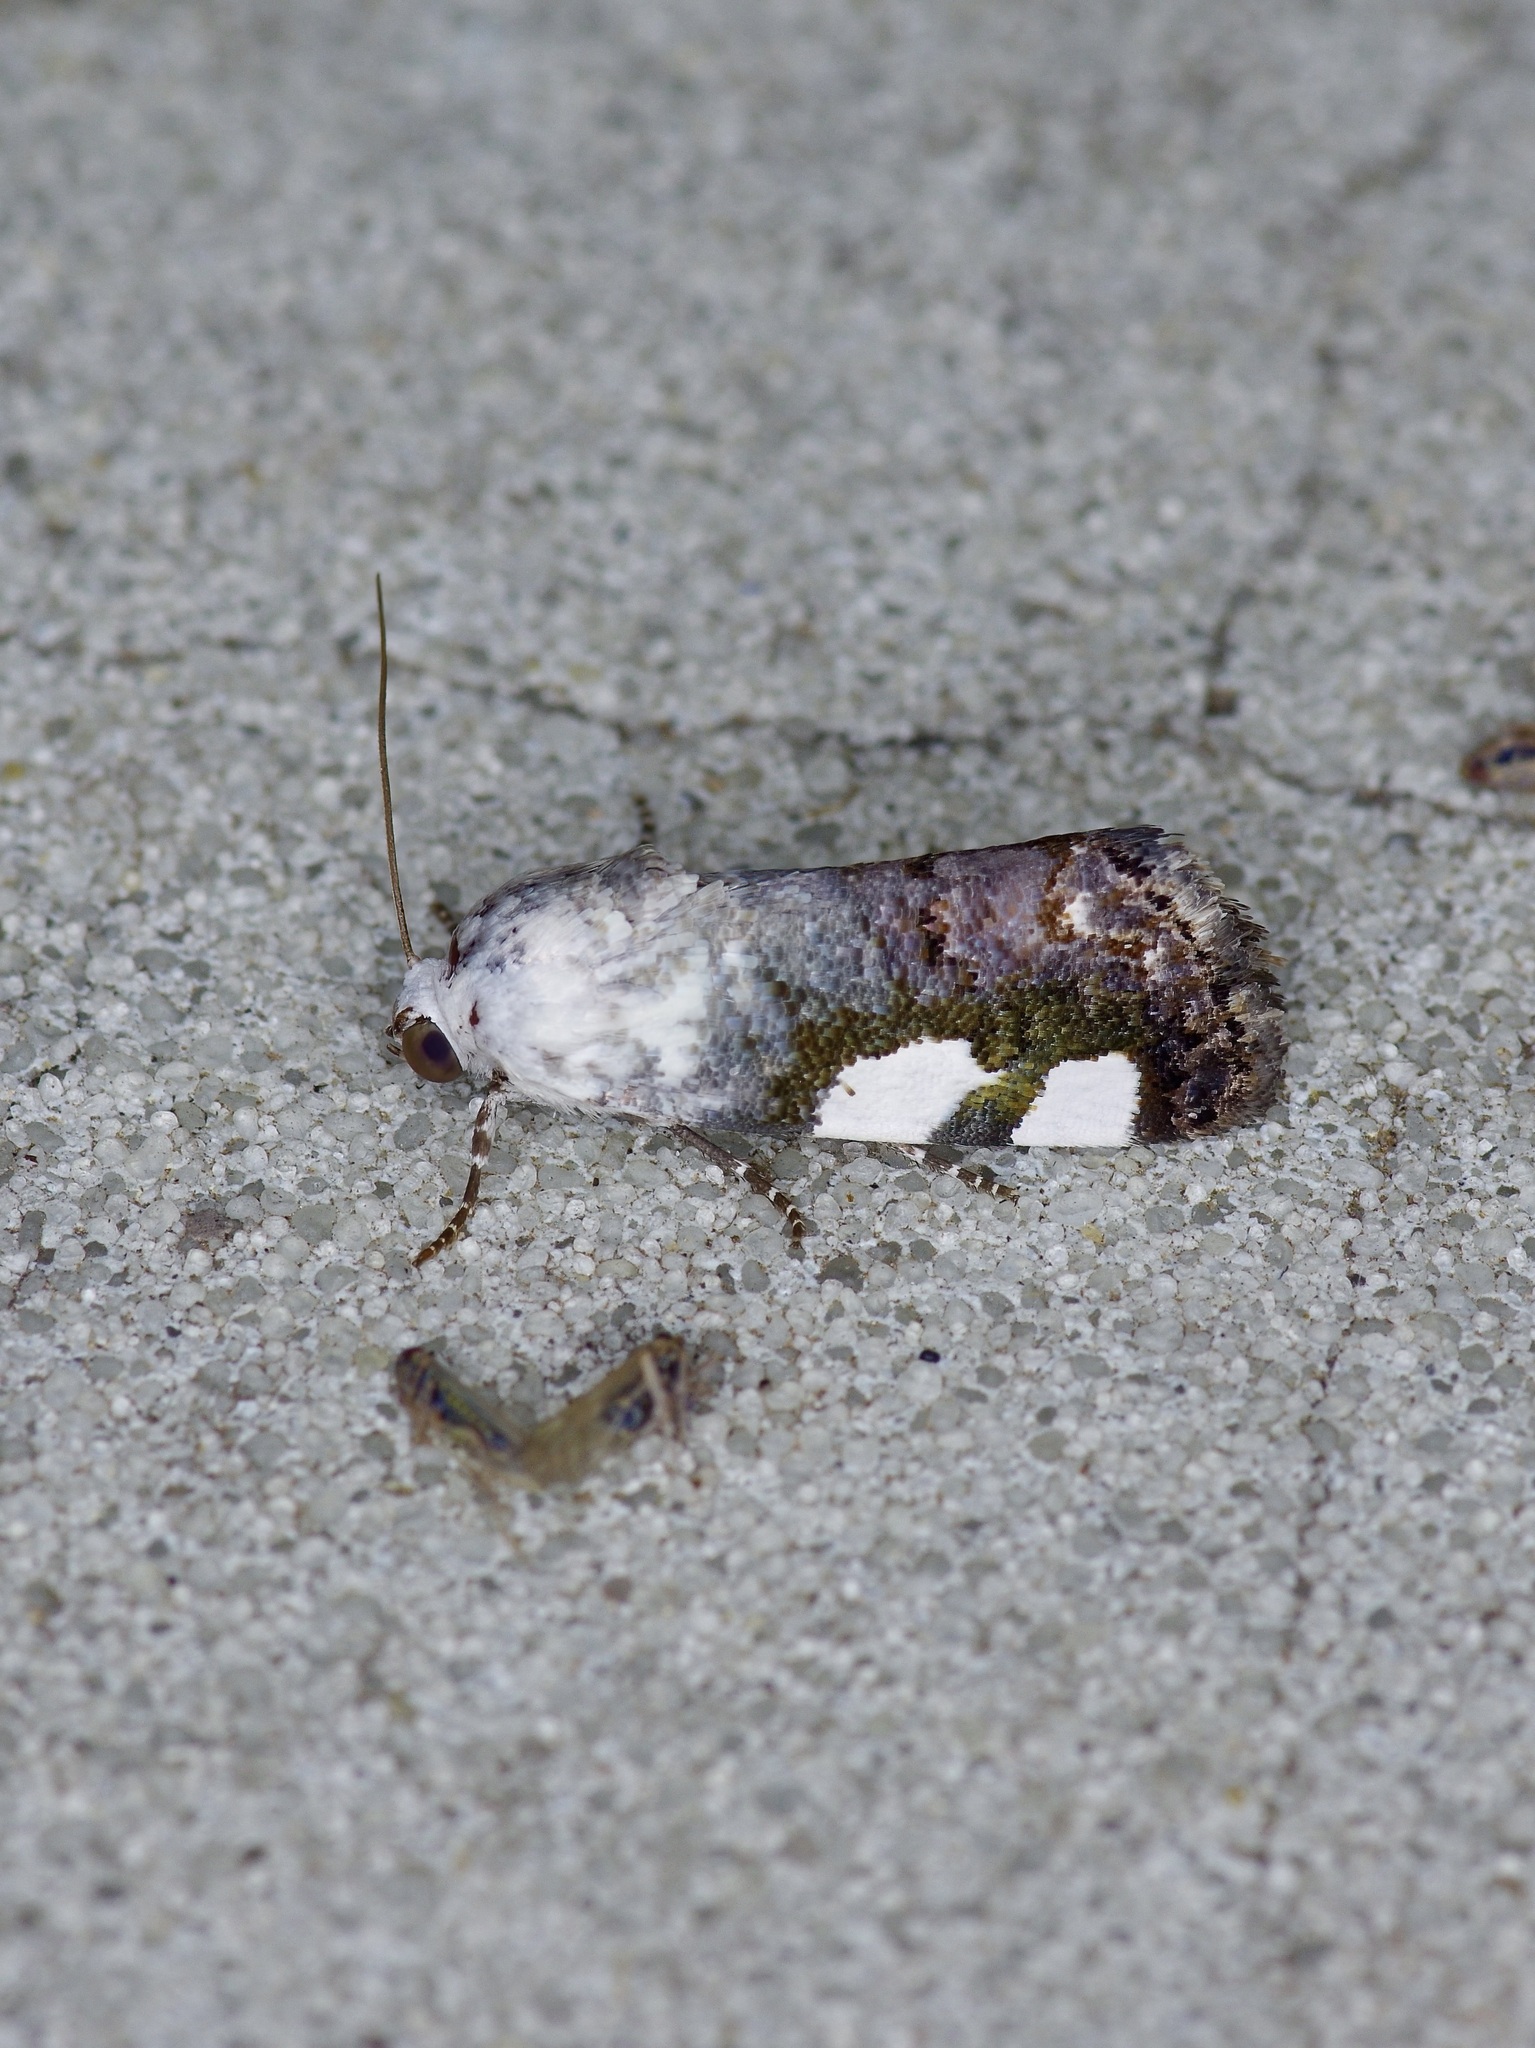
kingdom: Animalia
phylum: Arthropoda
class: Insecta
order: Lepidoptera
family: Noctuidae
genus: Acontia
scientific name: Acontia quadriplaga
